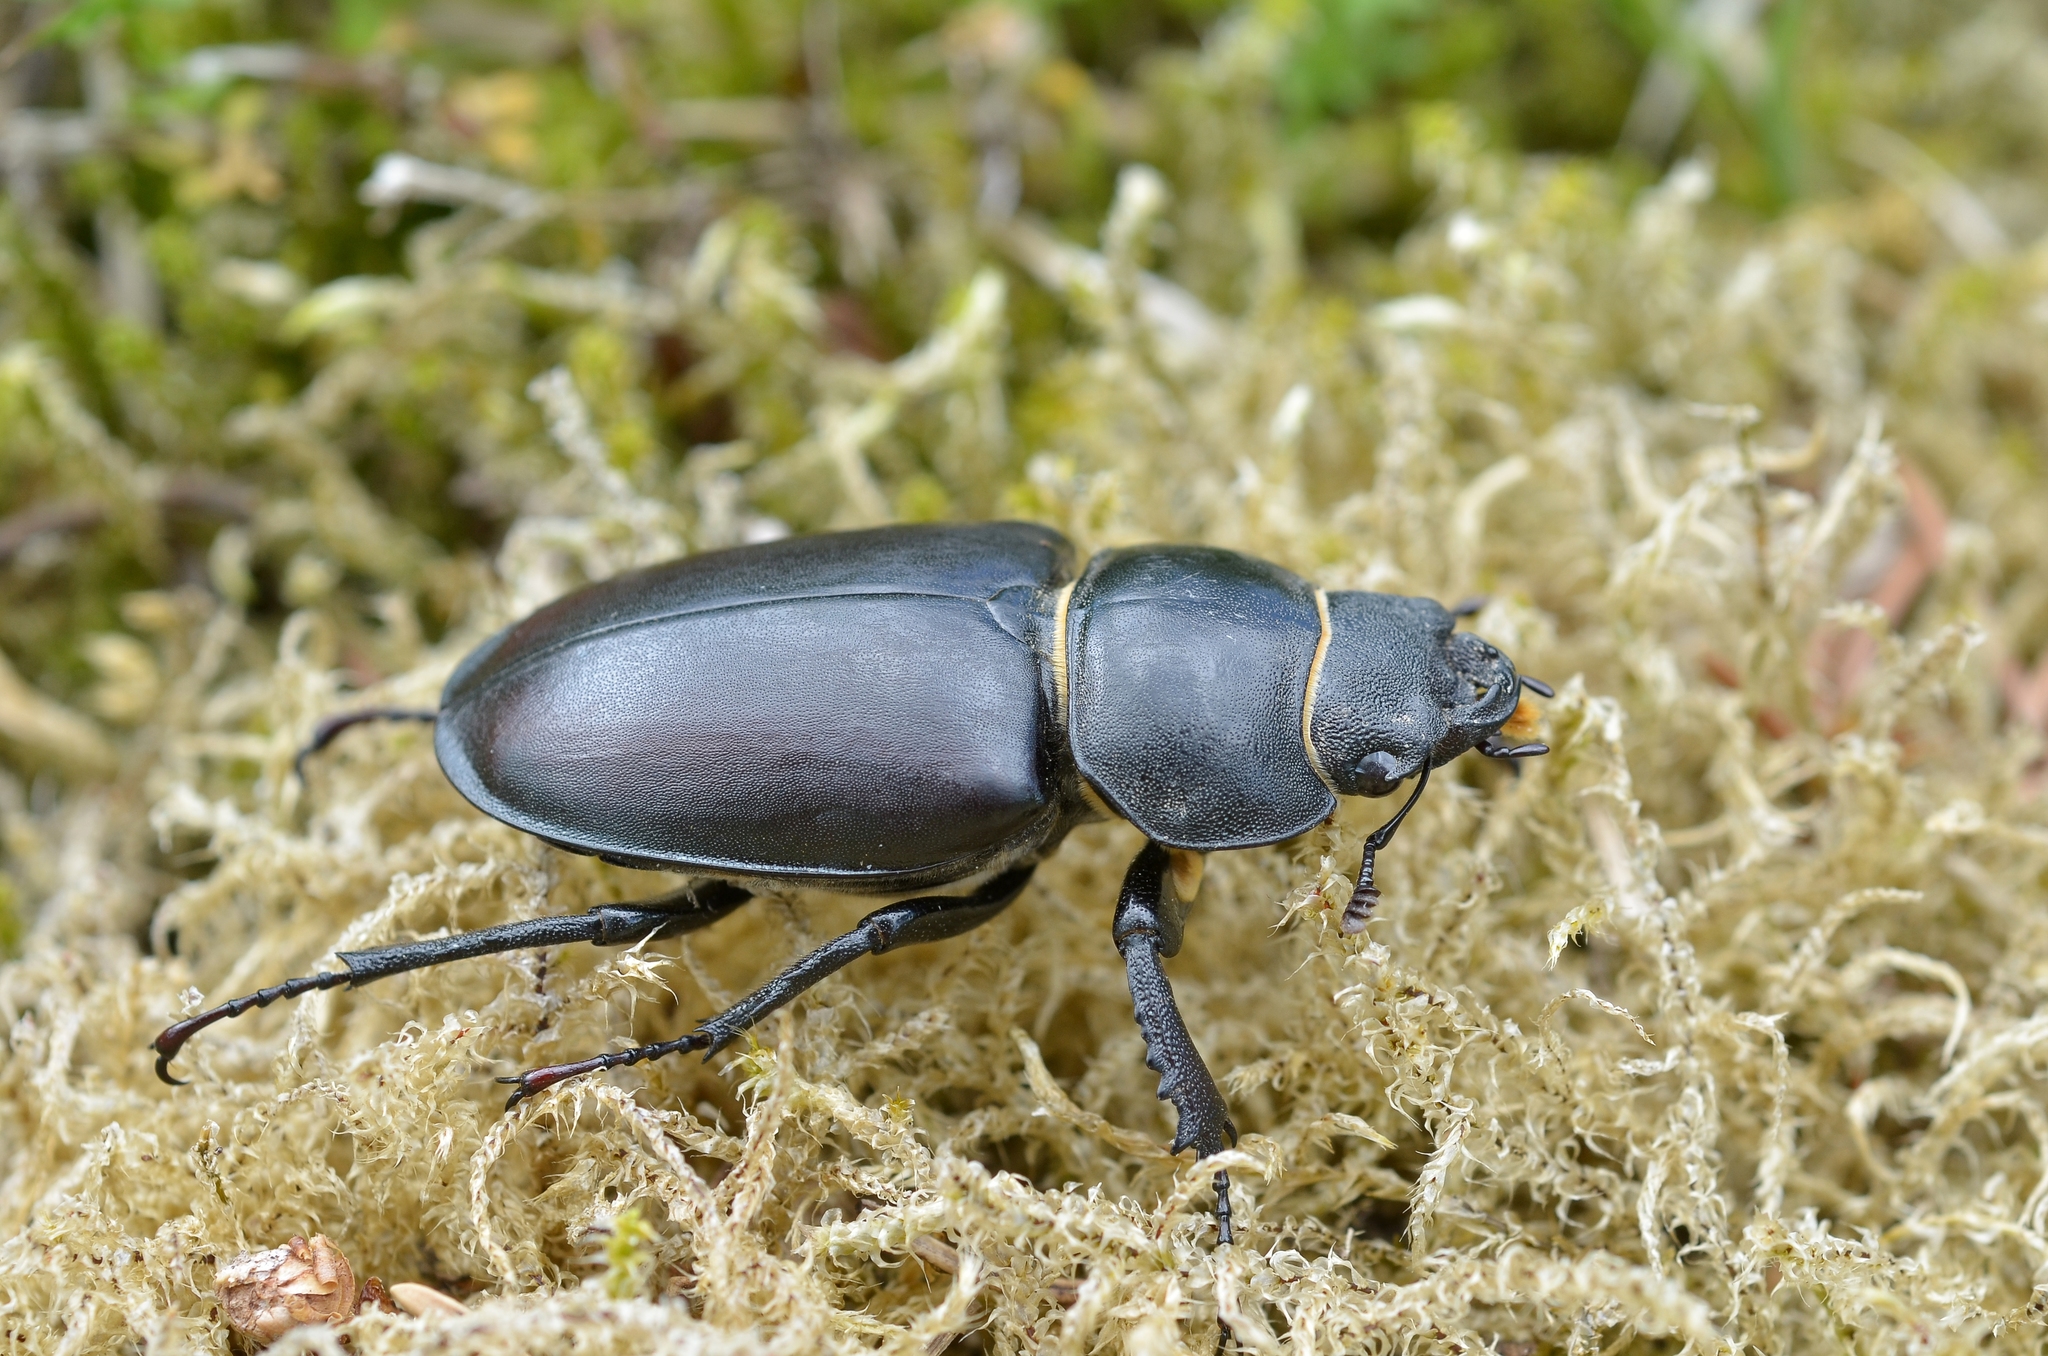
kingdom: Animalia
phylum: Arthropoda
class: Insecta
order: Coleoptera
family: Lucanidae
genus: Lucanus
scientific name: Lucanus cervus
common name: Stag beetle
